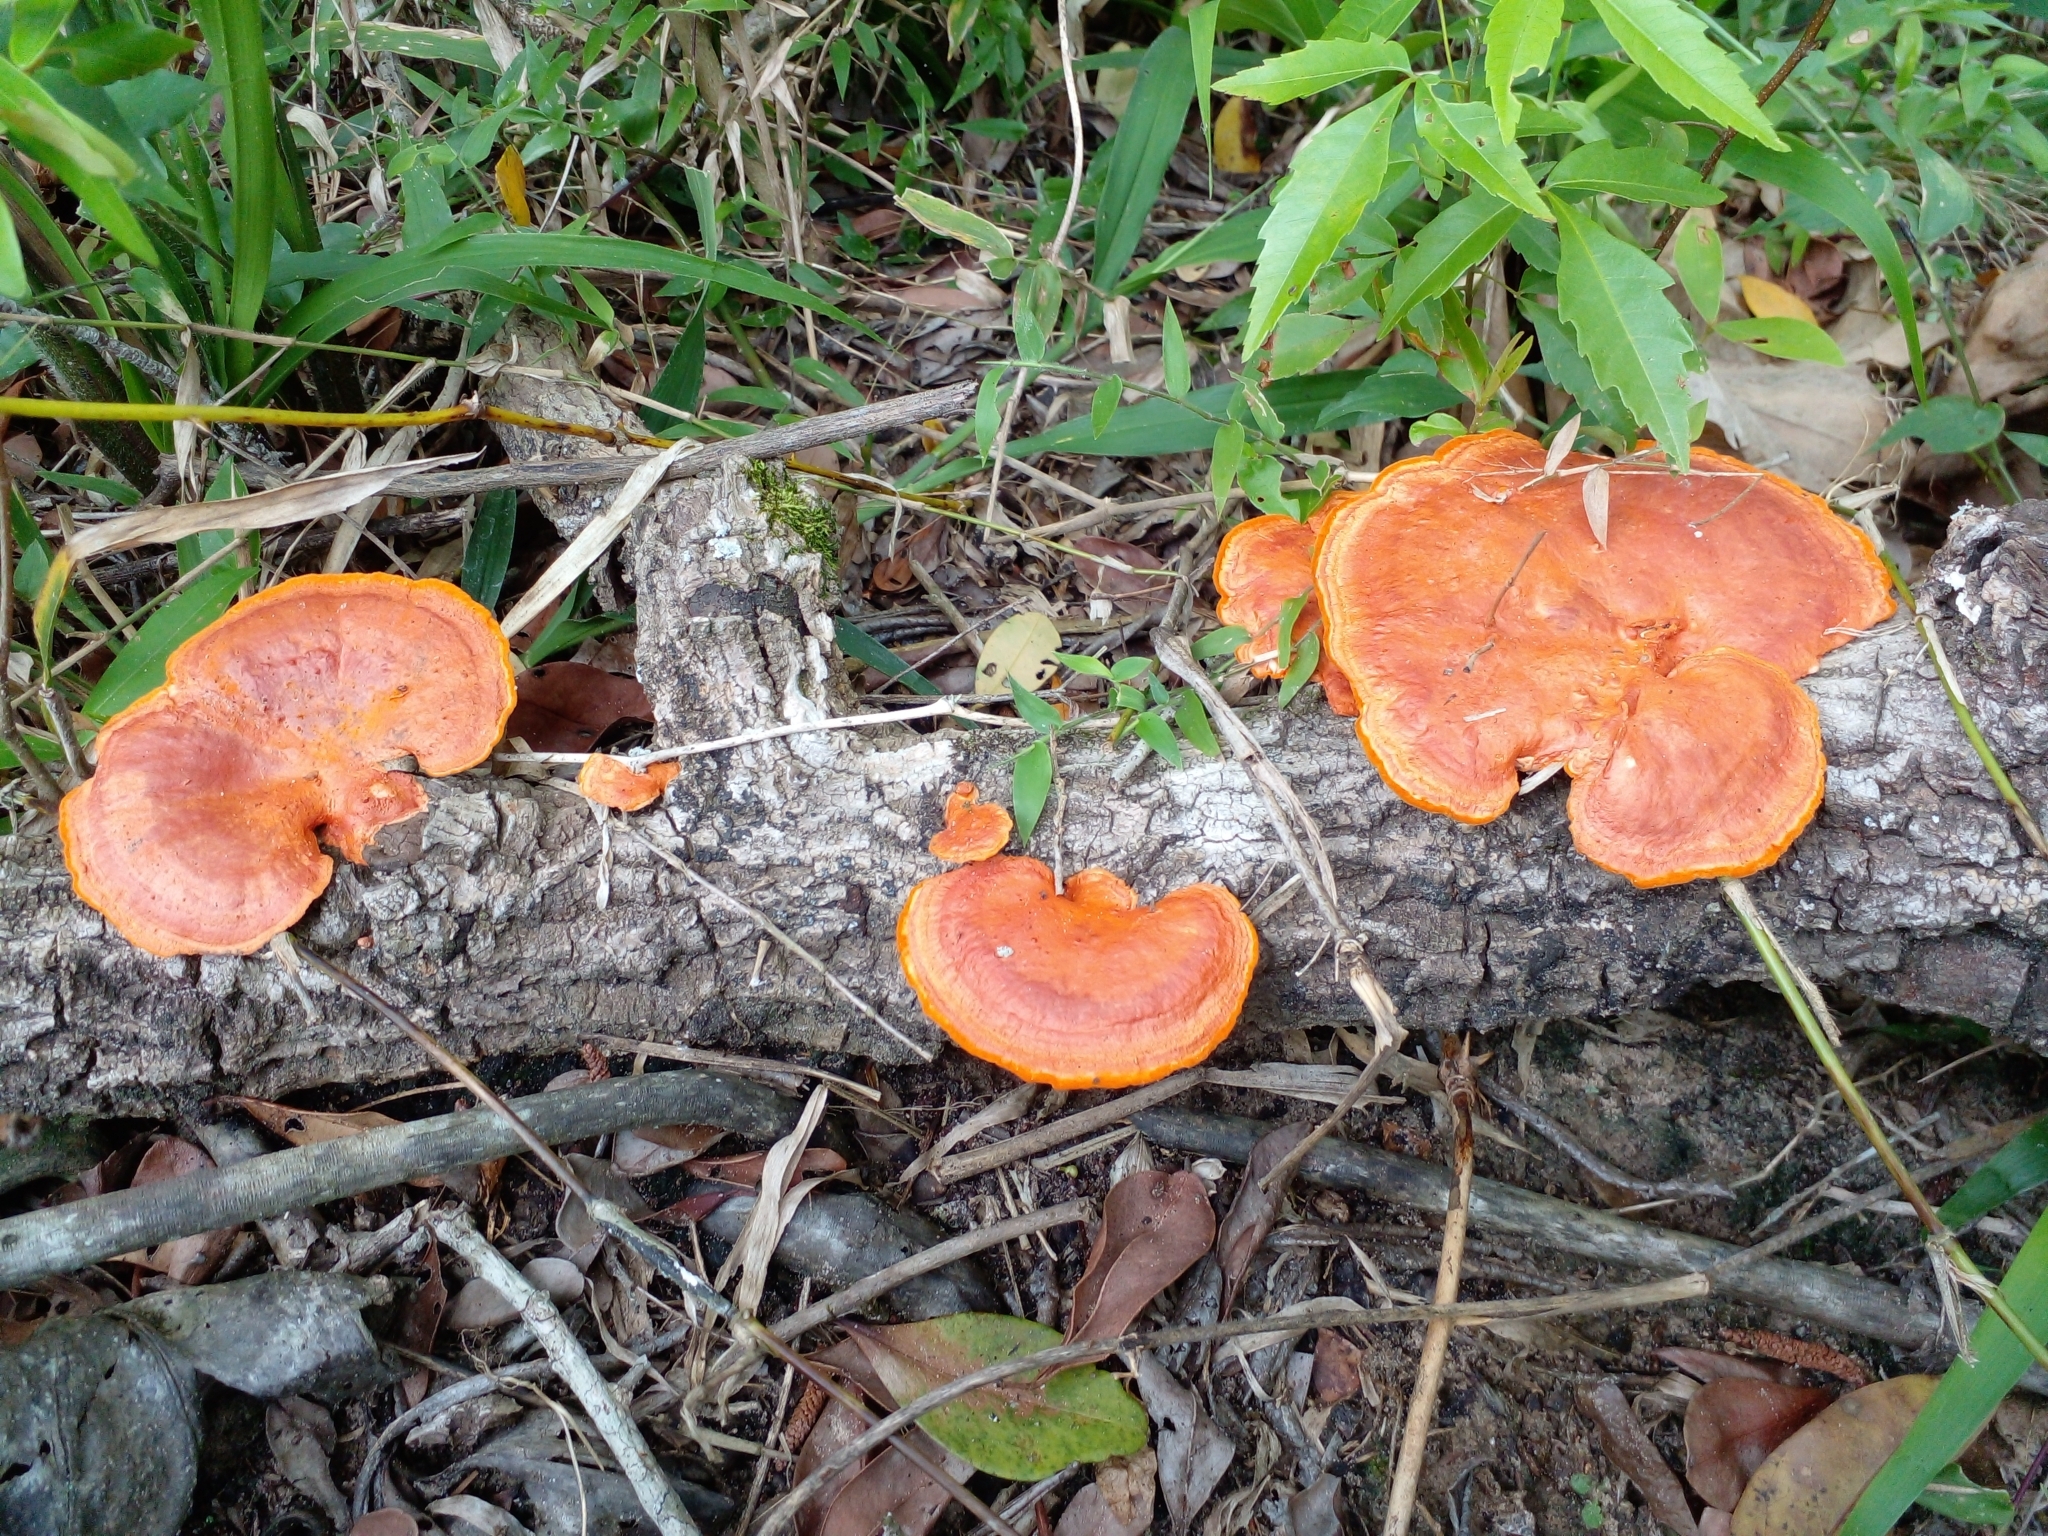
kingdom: Fungi
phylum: Basidiomycota
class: Agaricomycetes
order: Polyporales
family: Polyporaceae
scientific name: Polyporaceae
